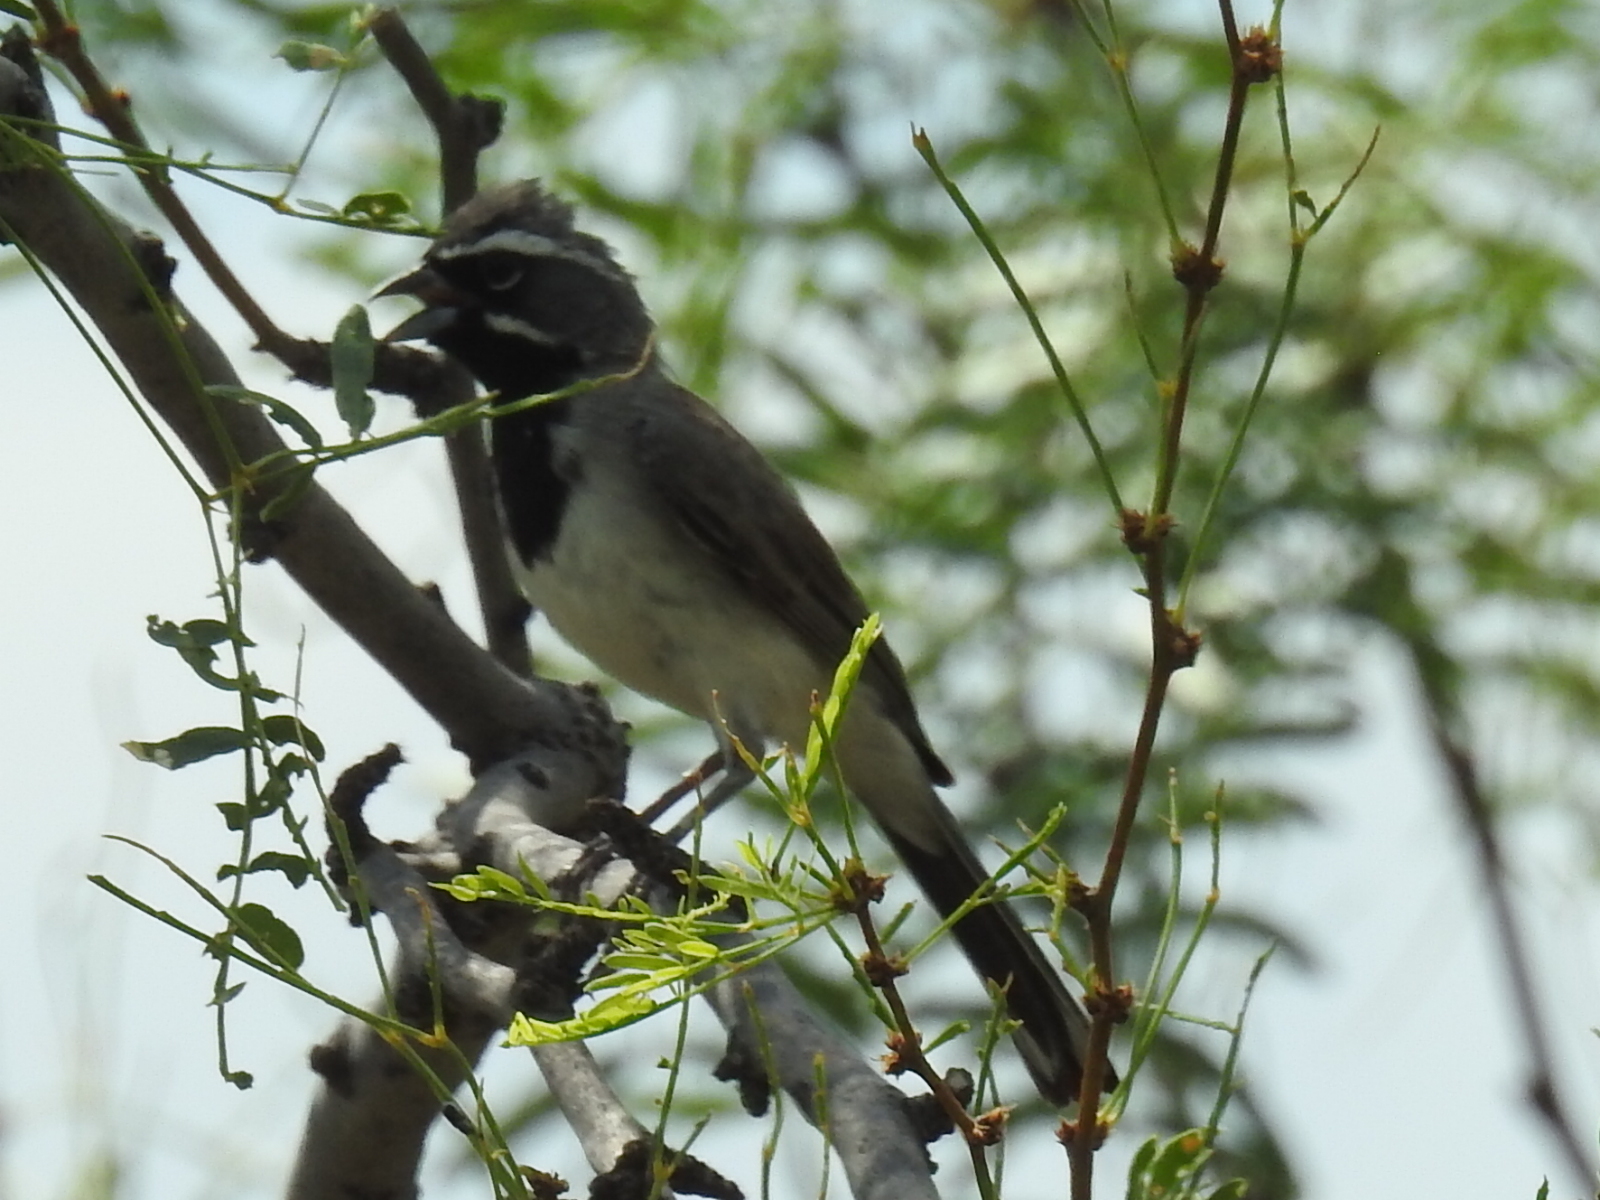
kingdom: Animalia
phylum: Chordata
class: Aves
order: Passeriformes
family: Passerellidae
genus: Amphispiza
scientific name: Amphispiza bilineata
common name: Black-throated sparrow
